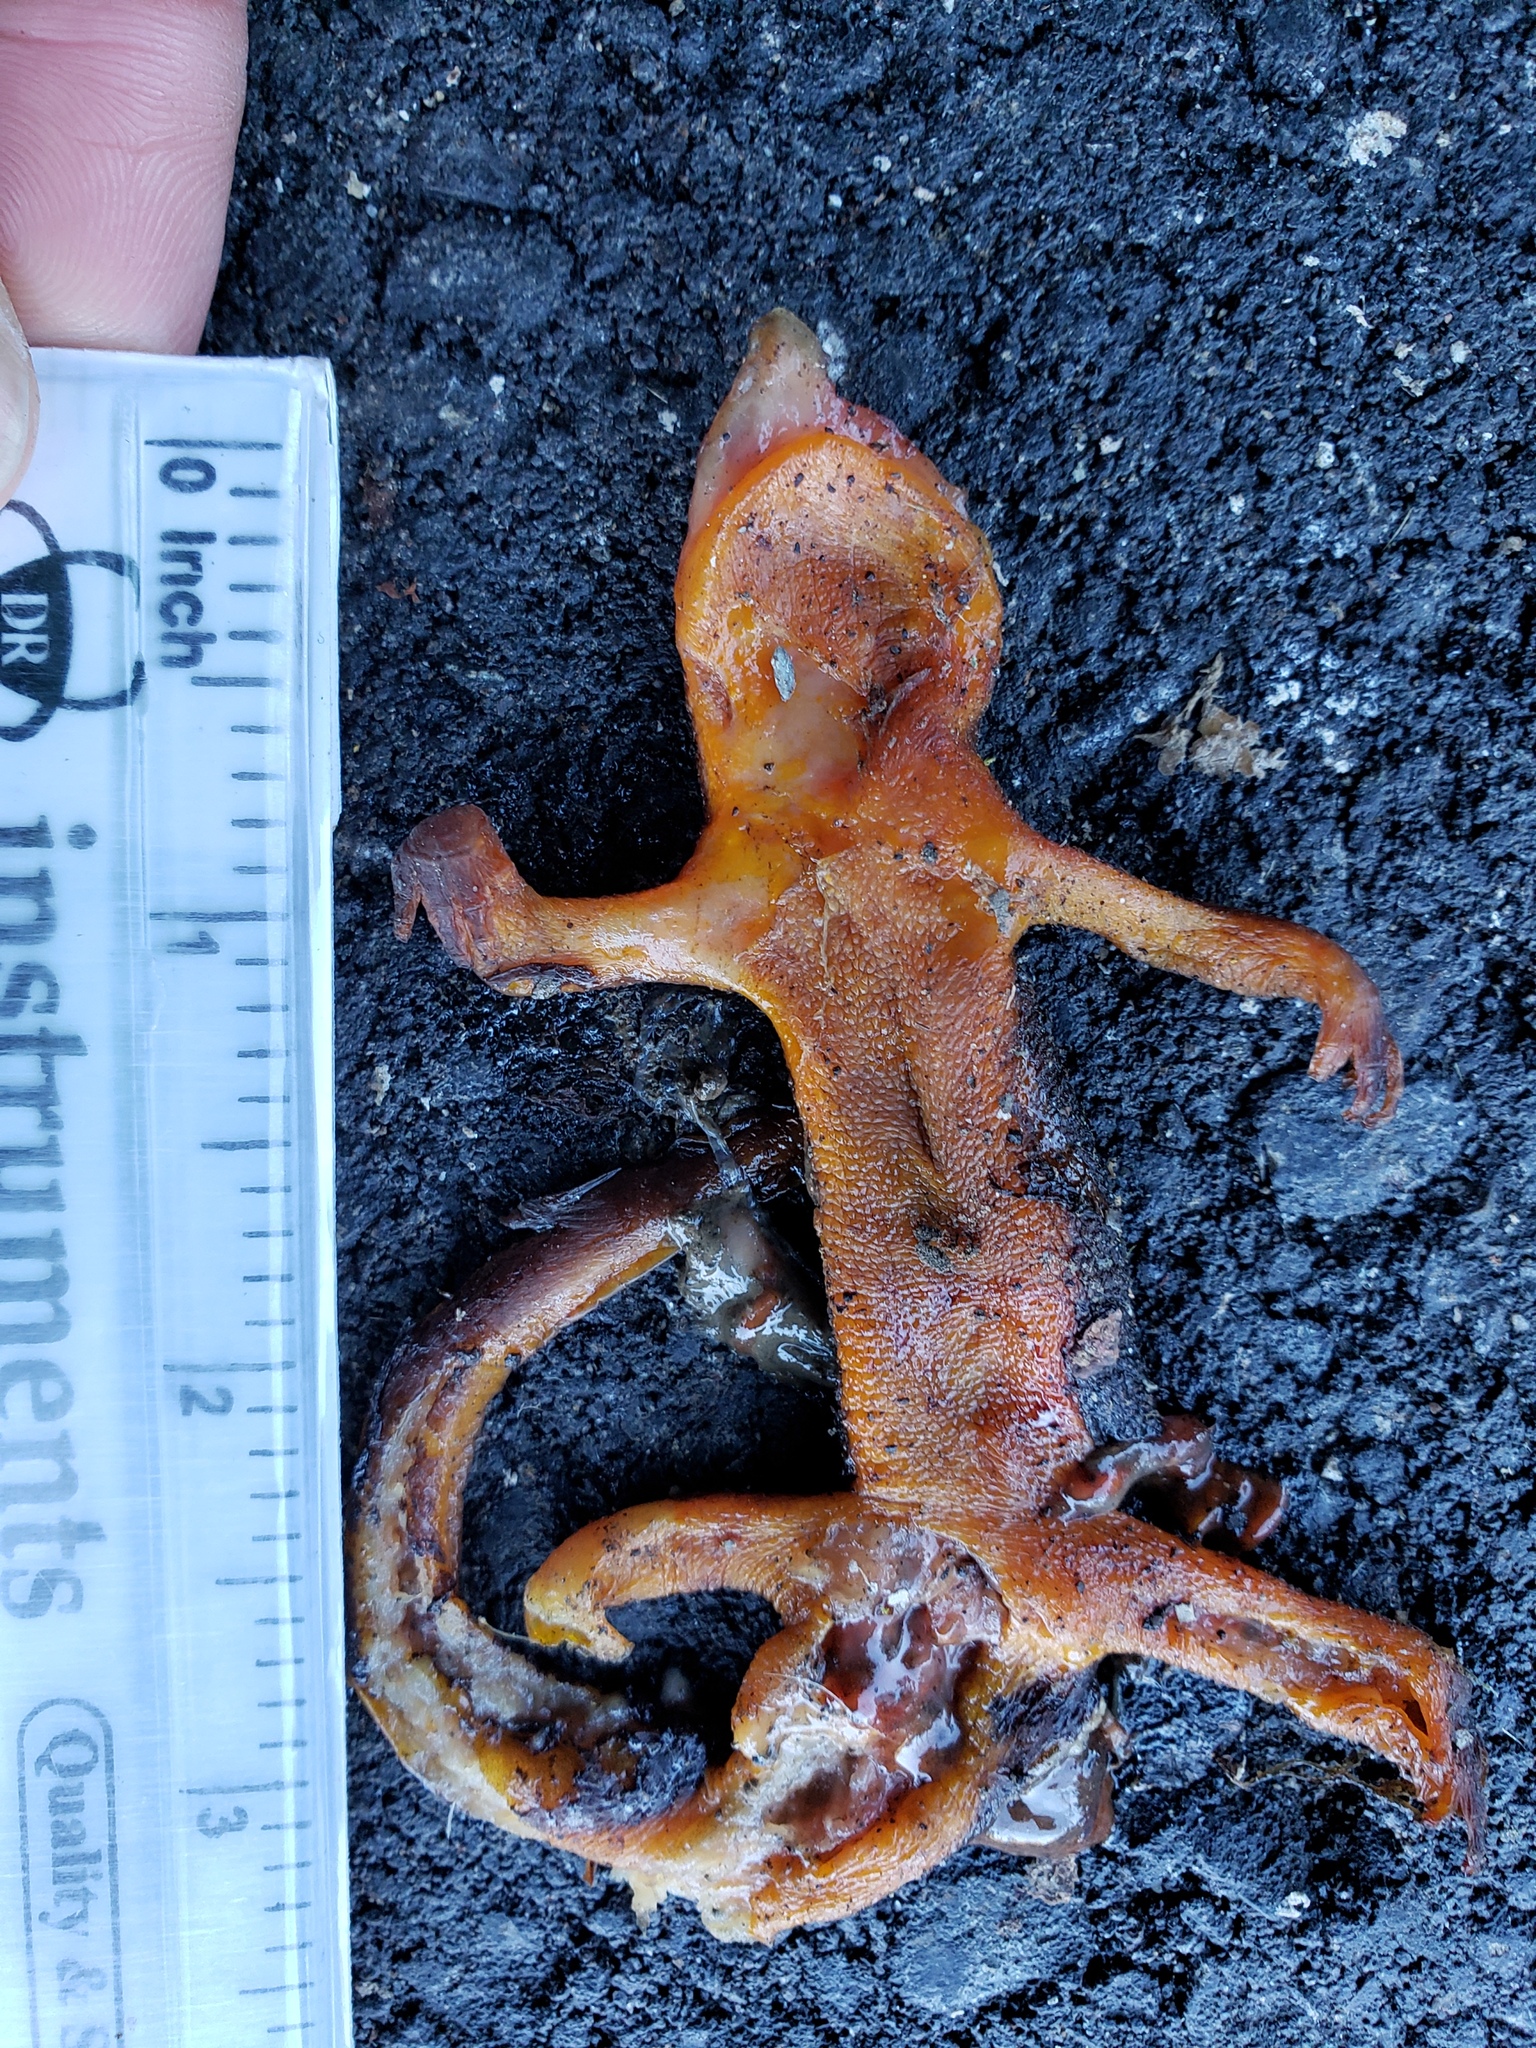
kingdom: Animalia
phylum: Chordata
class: Amphibia
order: Caudata
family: Salamandridae
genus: Taricha
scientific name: Taricha
